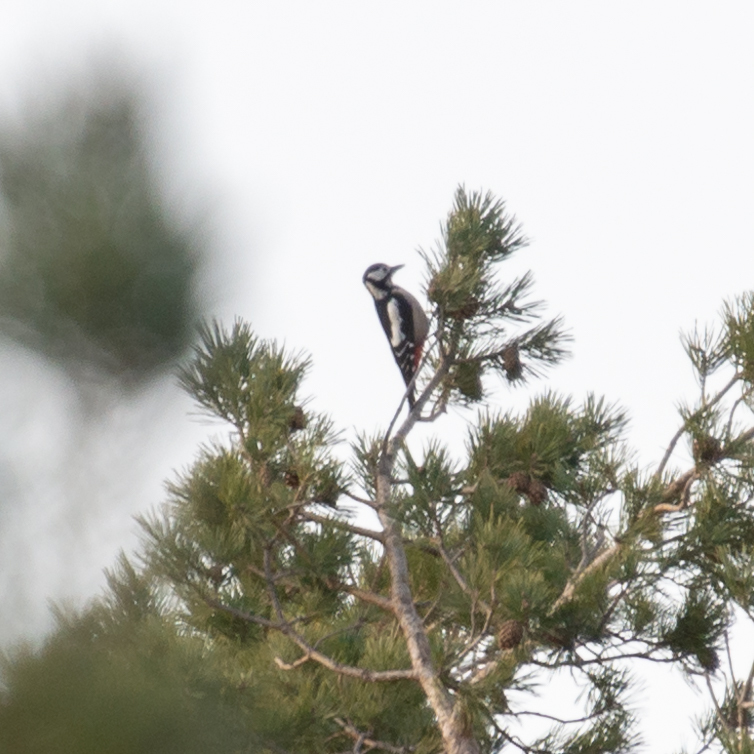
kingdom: Animalia
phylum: Chordata
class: Aves
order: Piciformes
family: Picidae
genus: Dendrocopos
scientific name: Dendrocopos major
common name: Great spotted woodpecker
